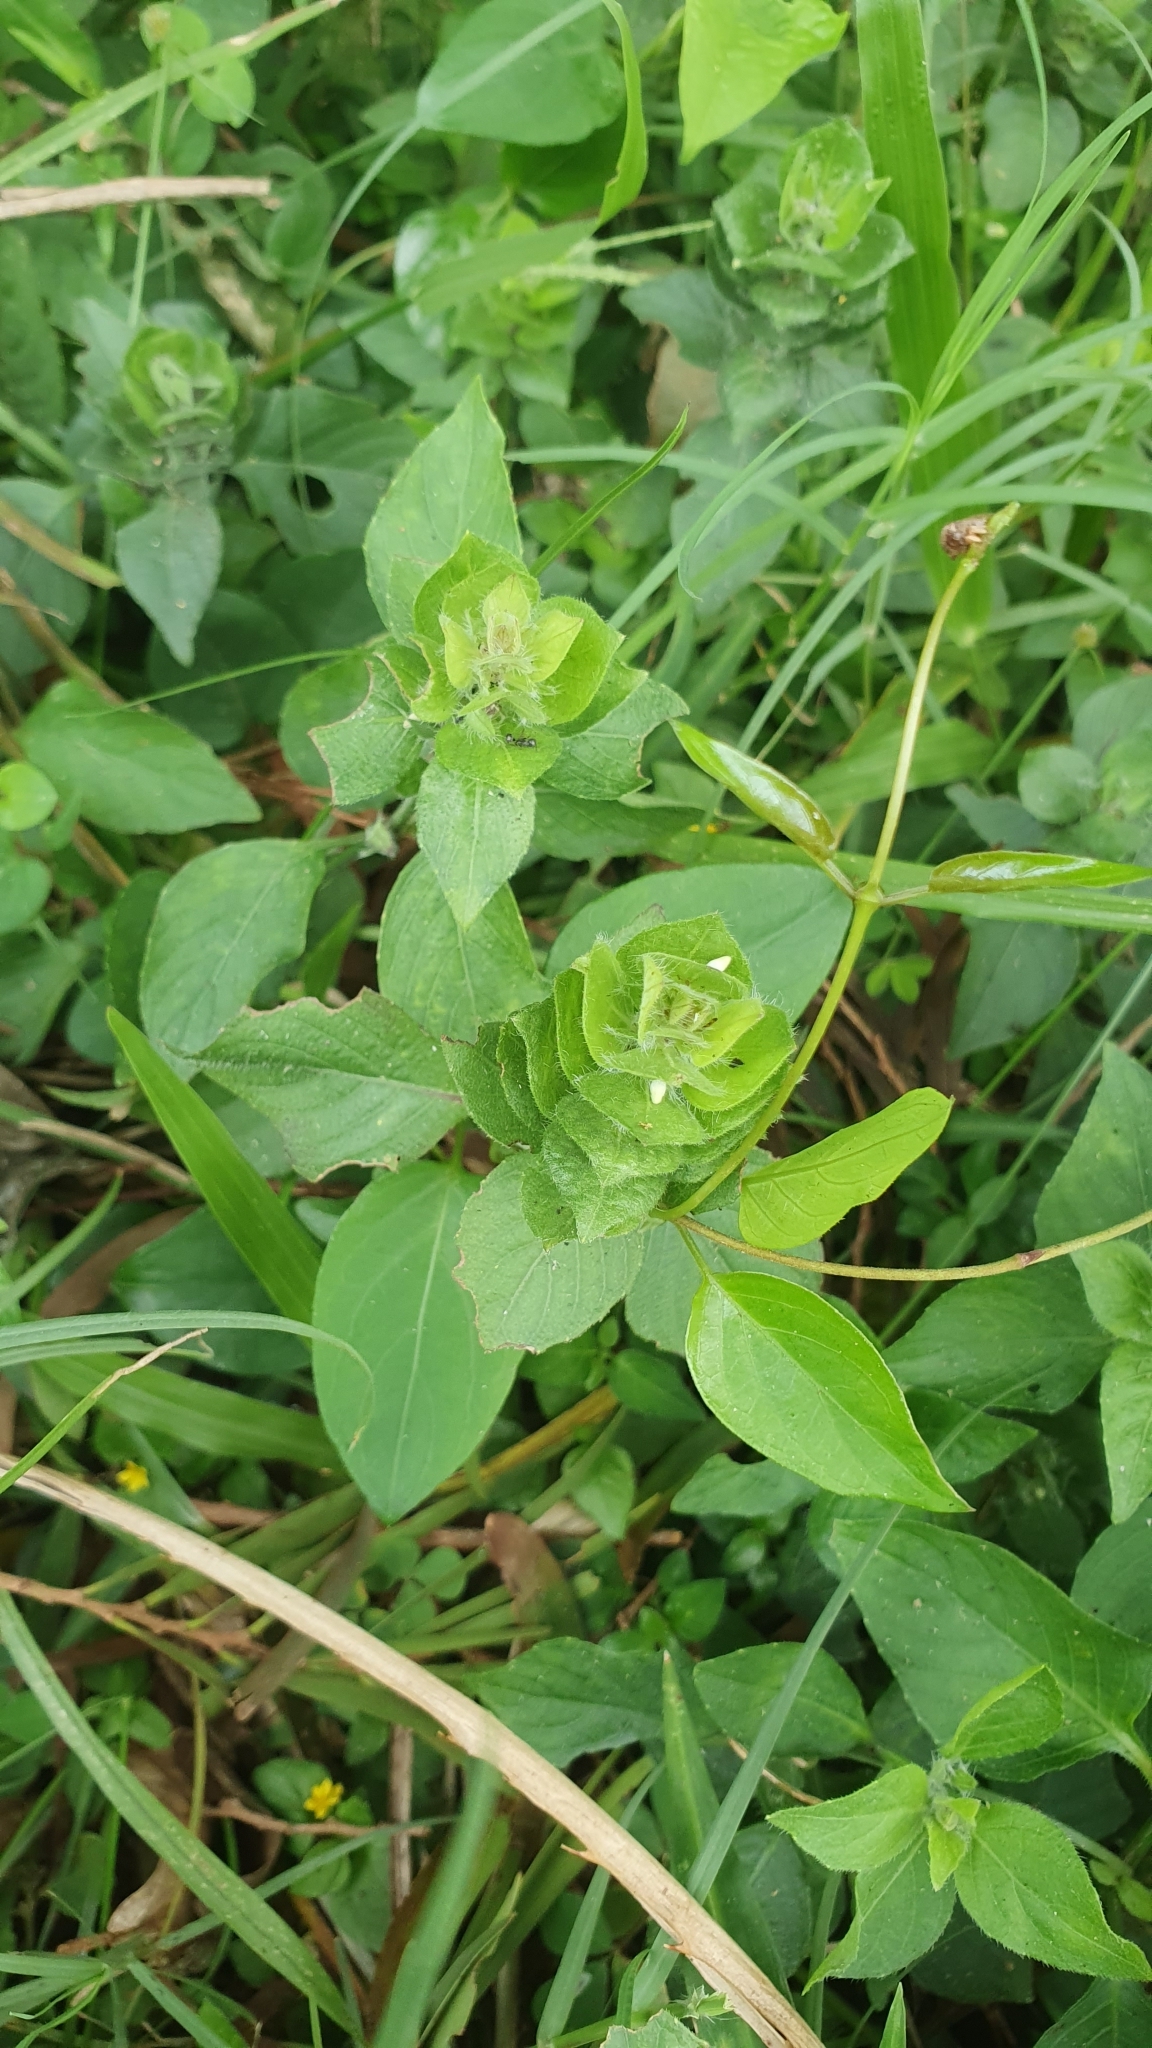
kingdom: Plantae
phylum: Tracheophyta
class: Magnoliopsida
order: Lamiales
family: Acanthaceae
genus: Ruellia
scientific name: Ruellia blechum
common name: Browne's blechum
